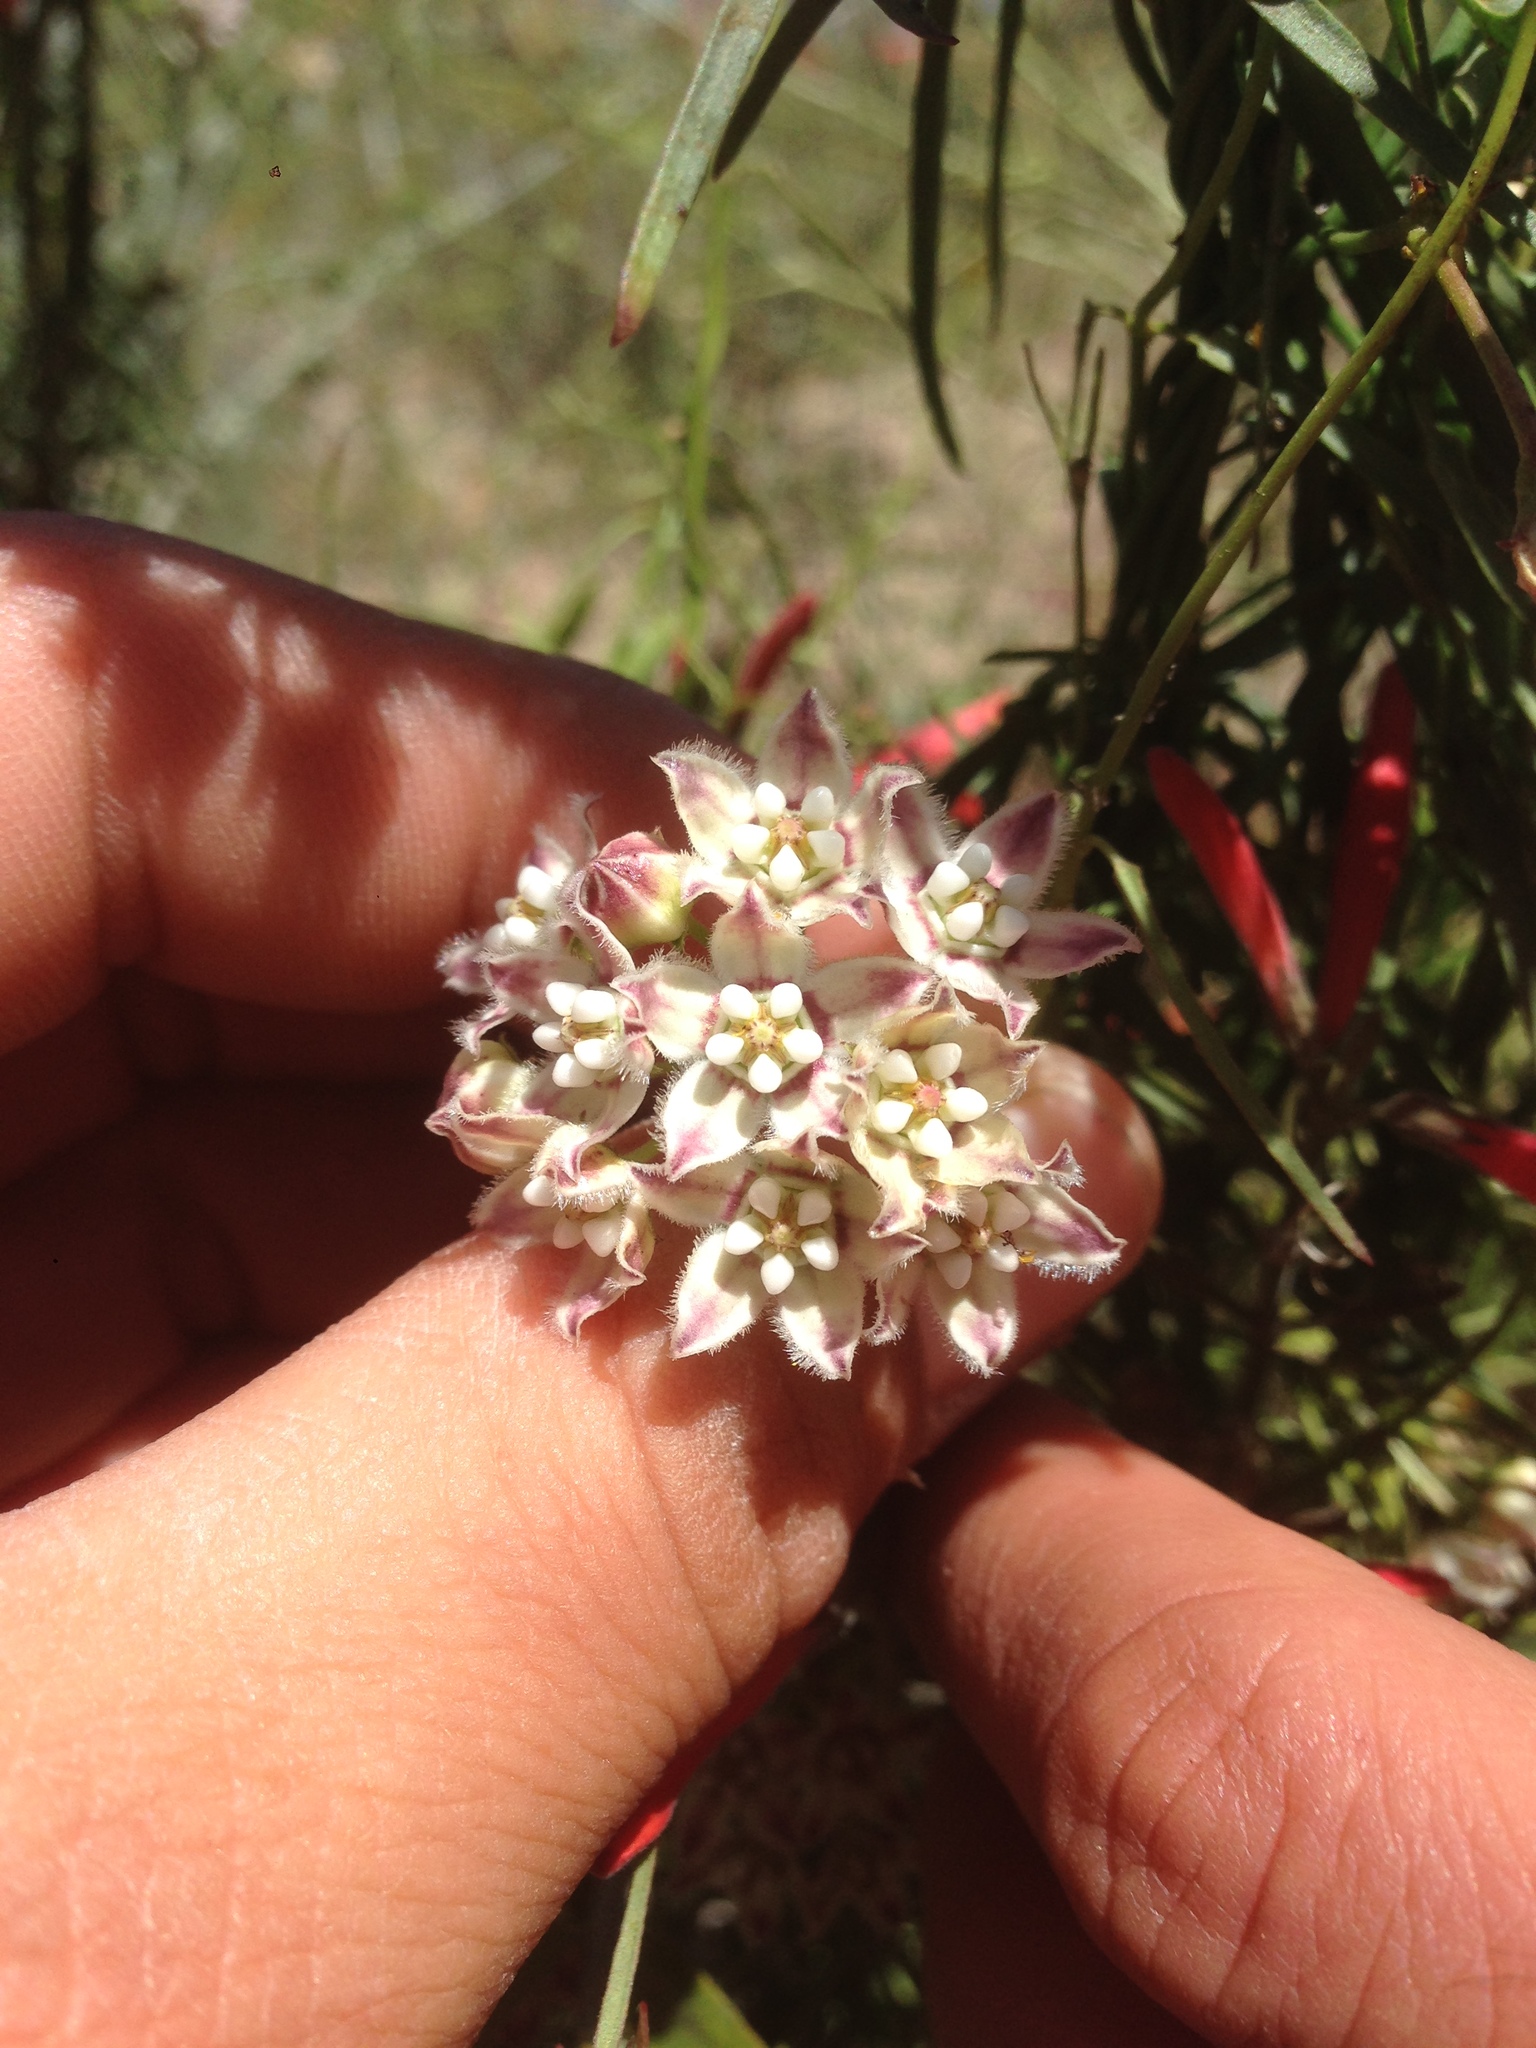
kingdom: Plantae
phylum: Tracheophyta
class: Magnoliopsida
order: Gentianales
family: Apocynaceae
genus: Funastrum
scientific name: Funastrum heterophyllum
